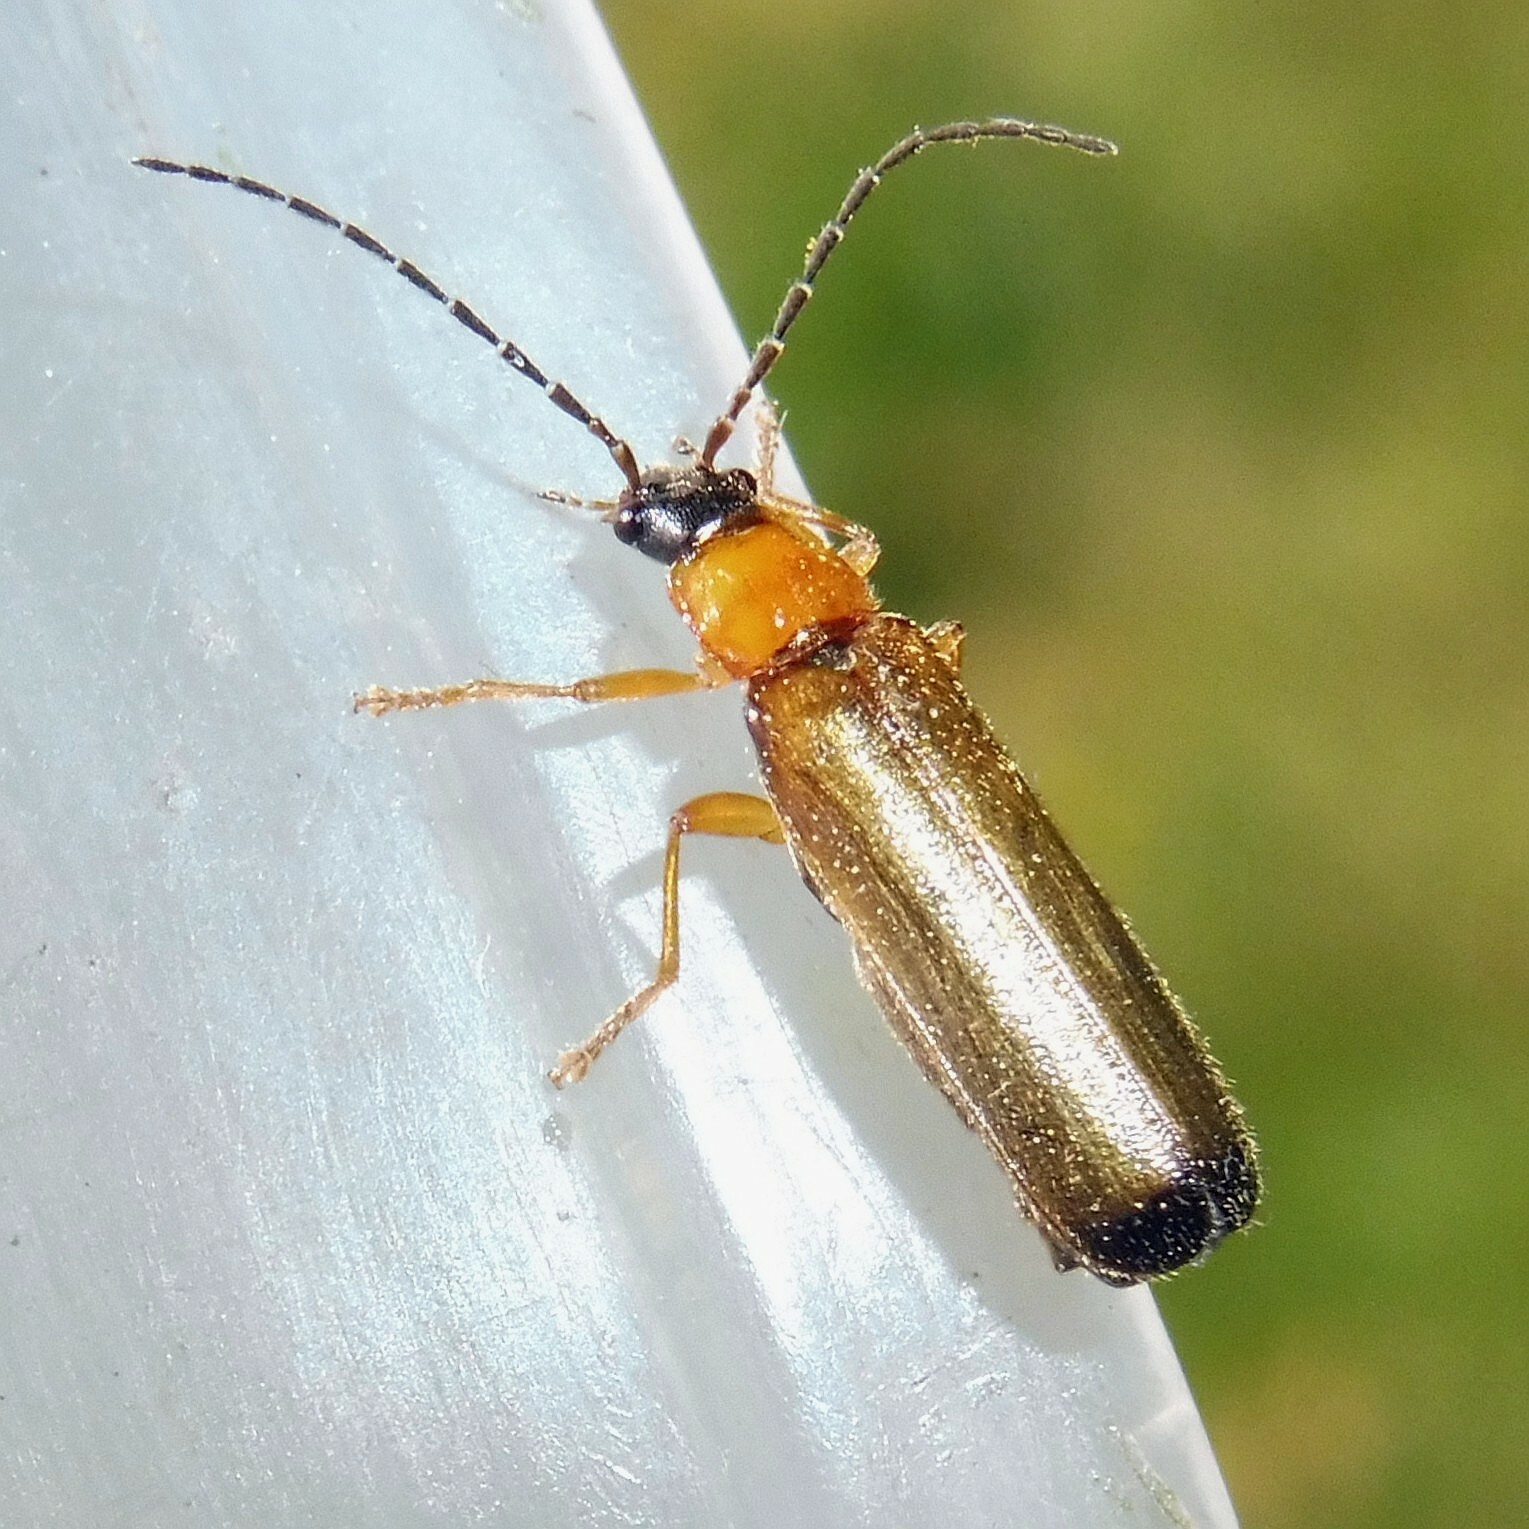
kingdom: Animalia
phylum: Arthropoda
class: Insecta
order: Coleoptera
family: Cantharidae
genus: Rhagonycha
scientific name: Rhagonycha lutea
